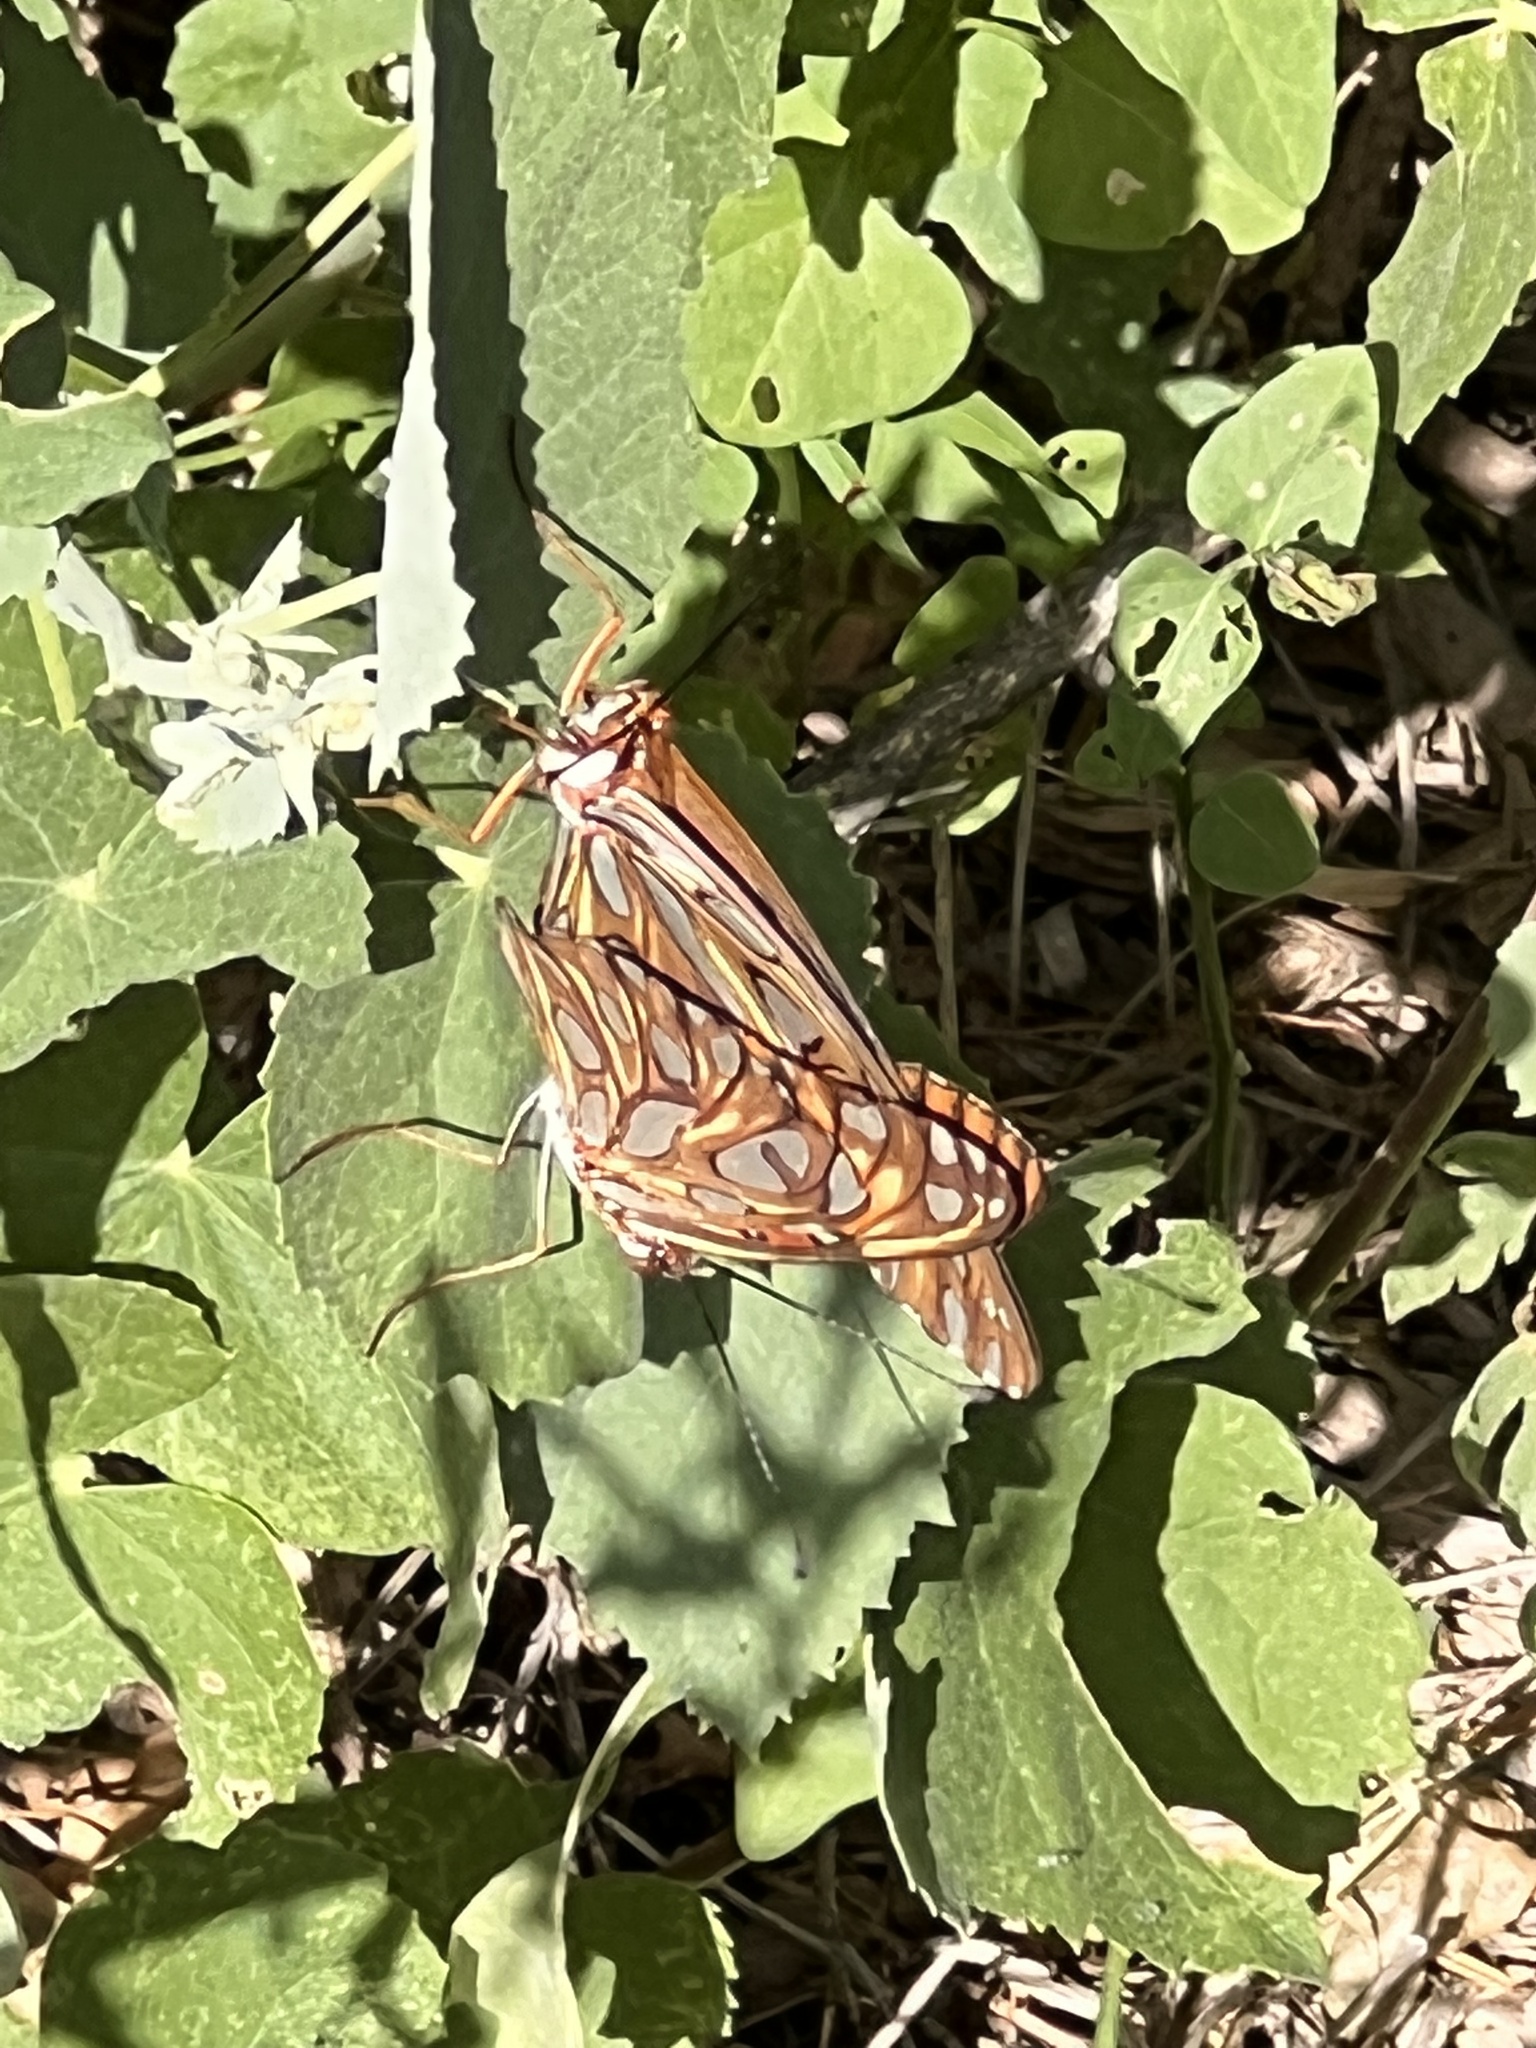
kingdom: Animalia
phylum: Arthropoda
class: Insecta
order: Lepidoptera
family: Nymphalidae
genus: Dione
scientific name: Dione vanillae
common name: Gulf fritillary
